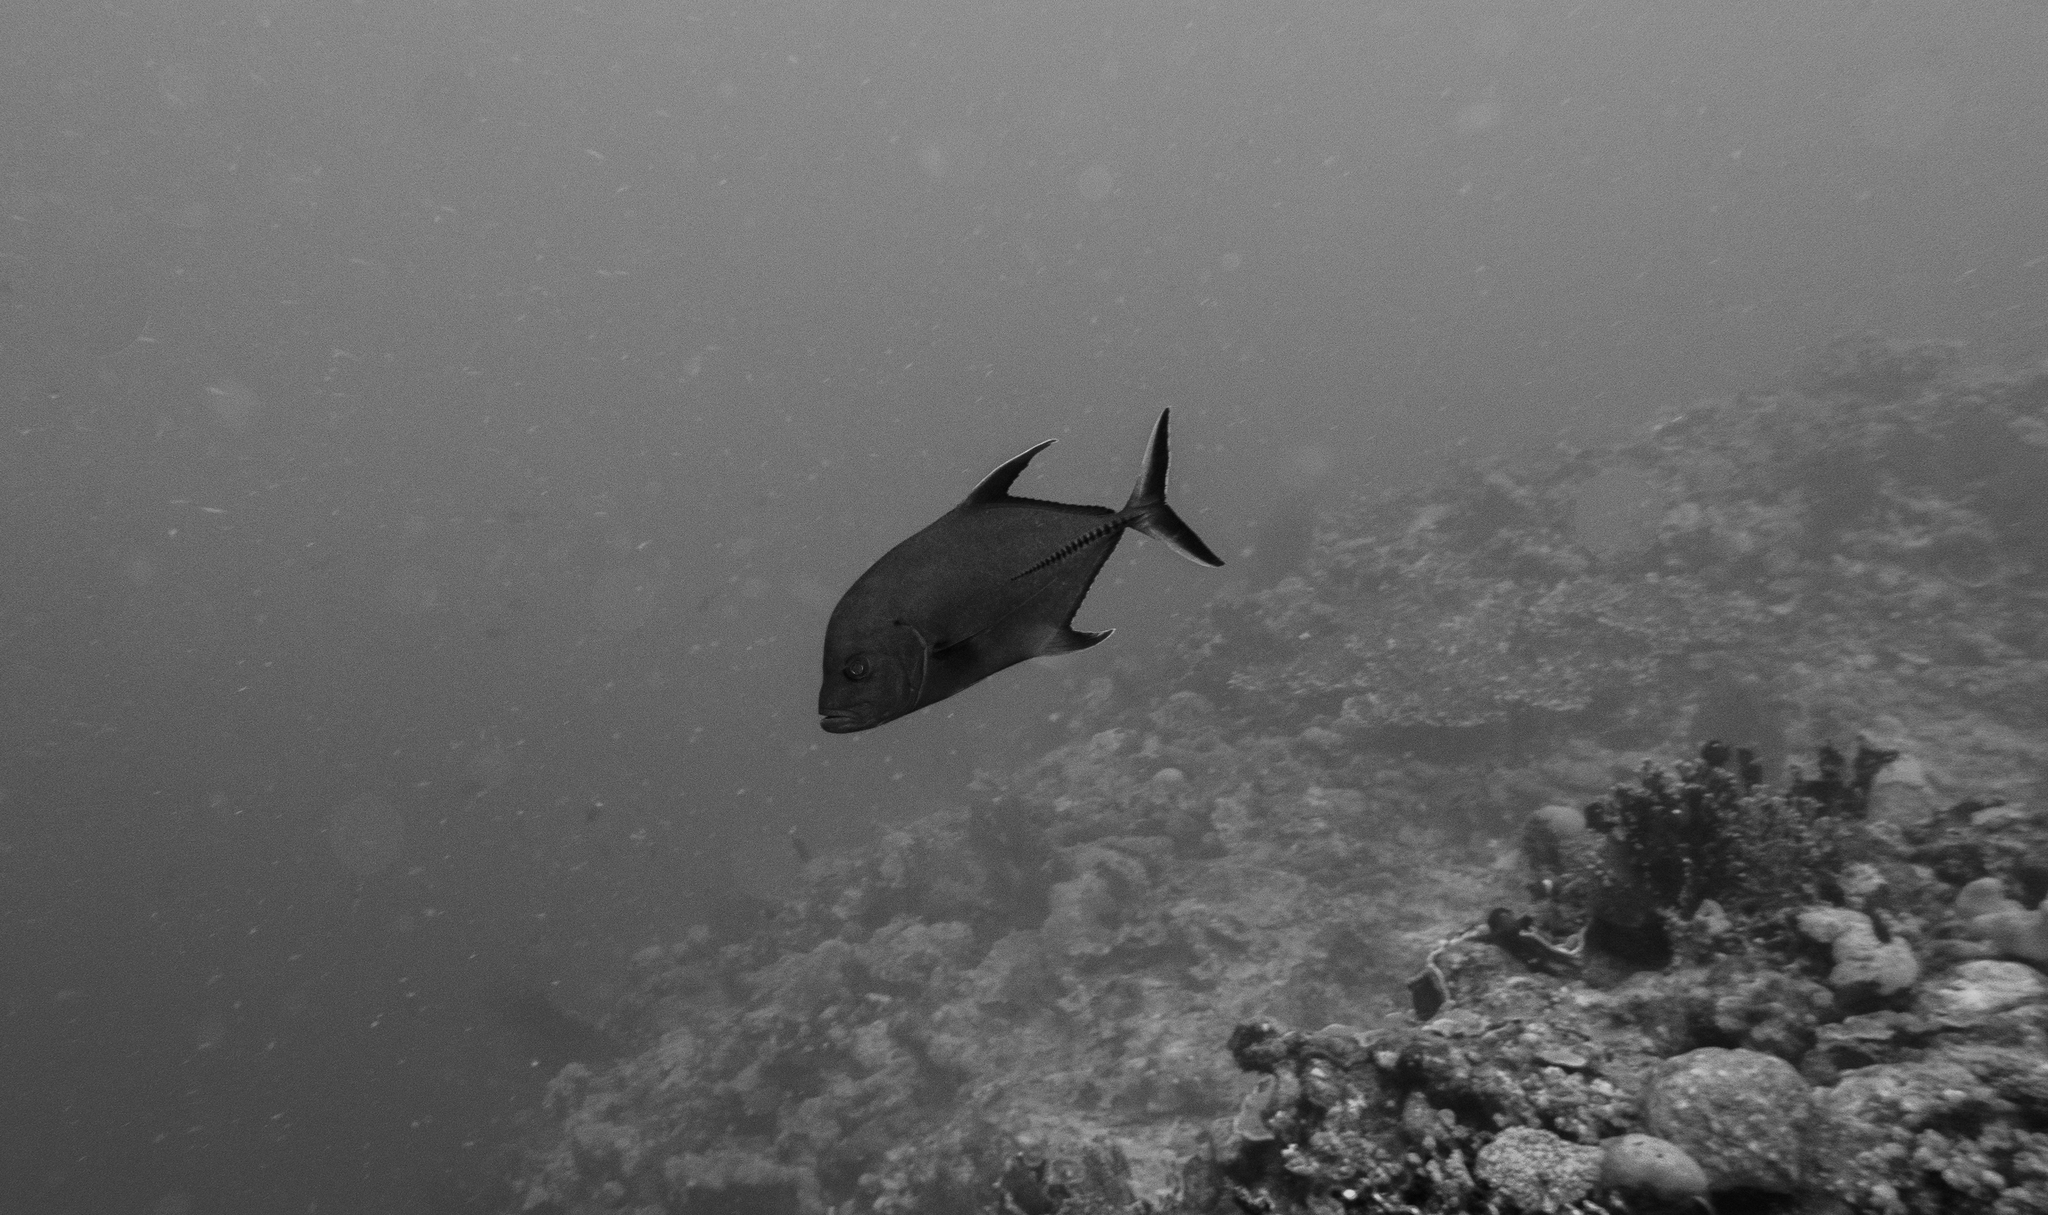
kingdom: Animalia
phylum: Chordata
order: Perciformes
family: Carangidae
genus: Caranx
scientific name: Caranx lugubris
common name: Black jack
